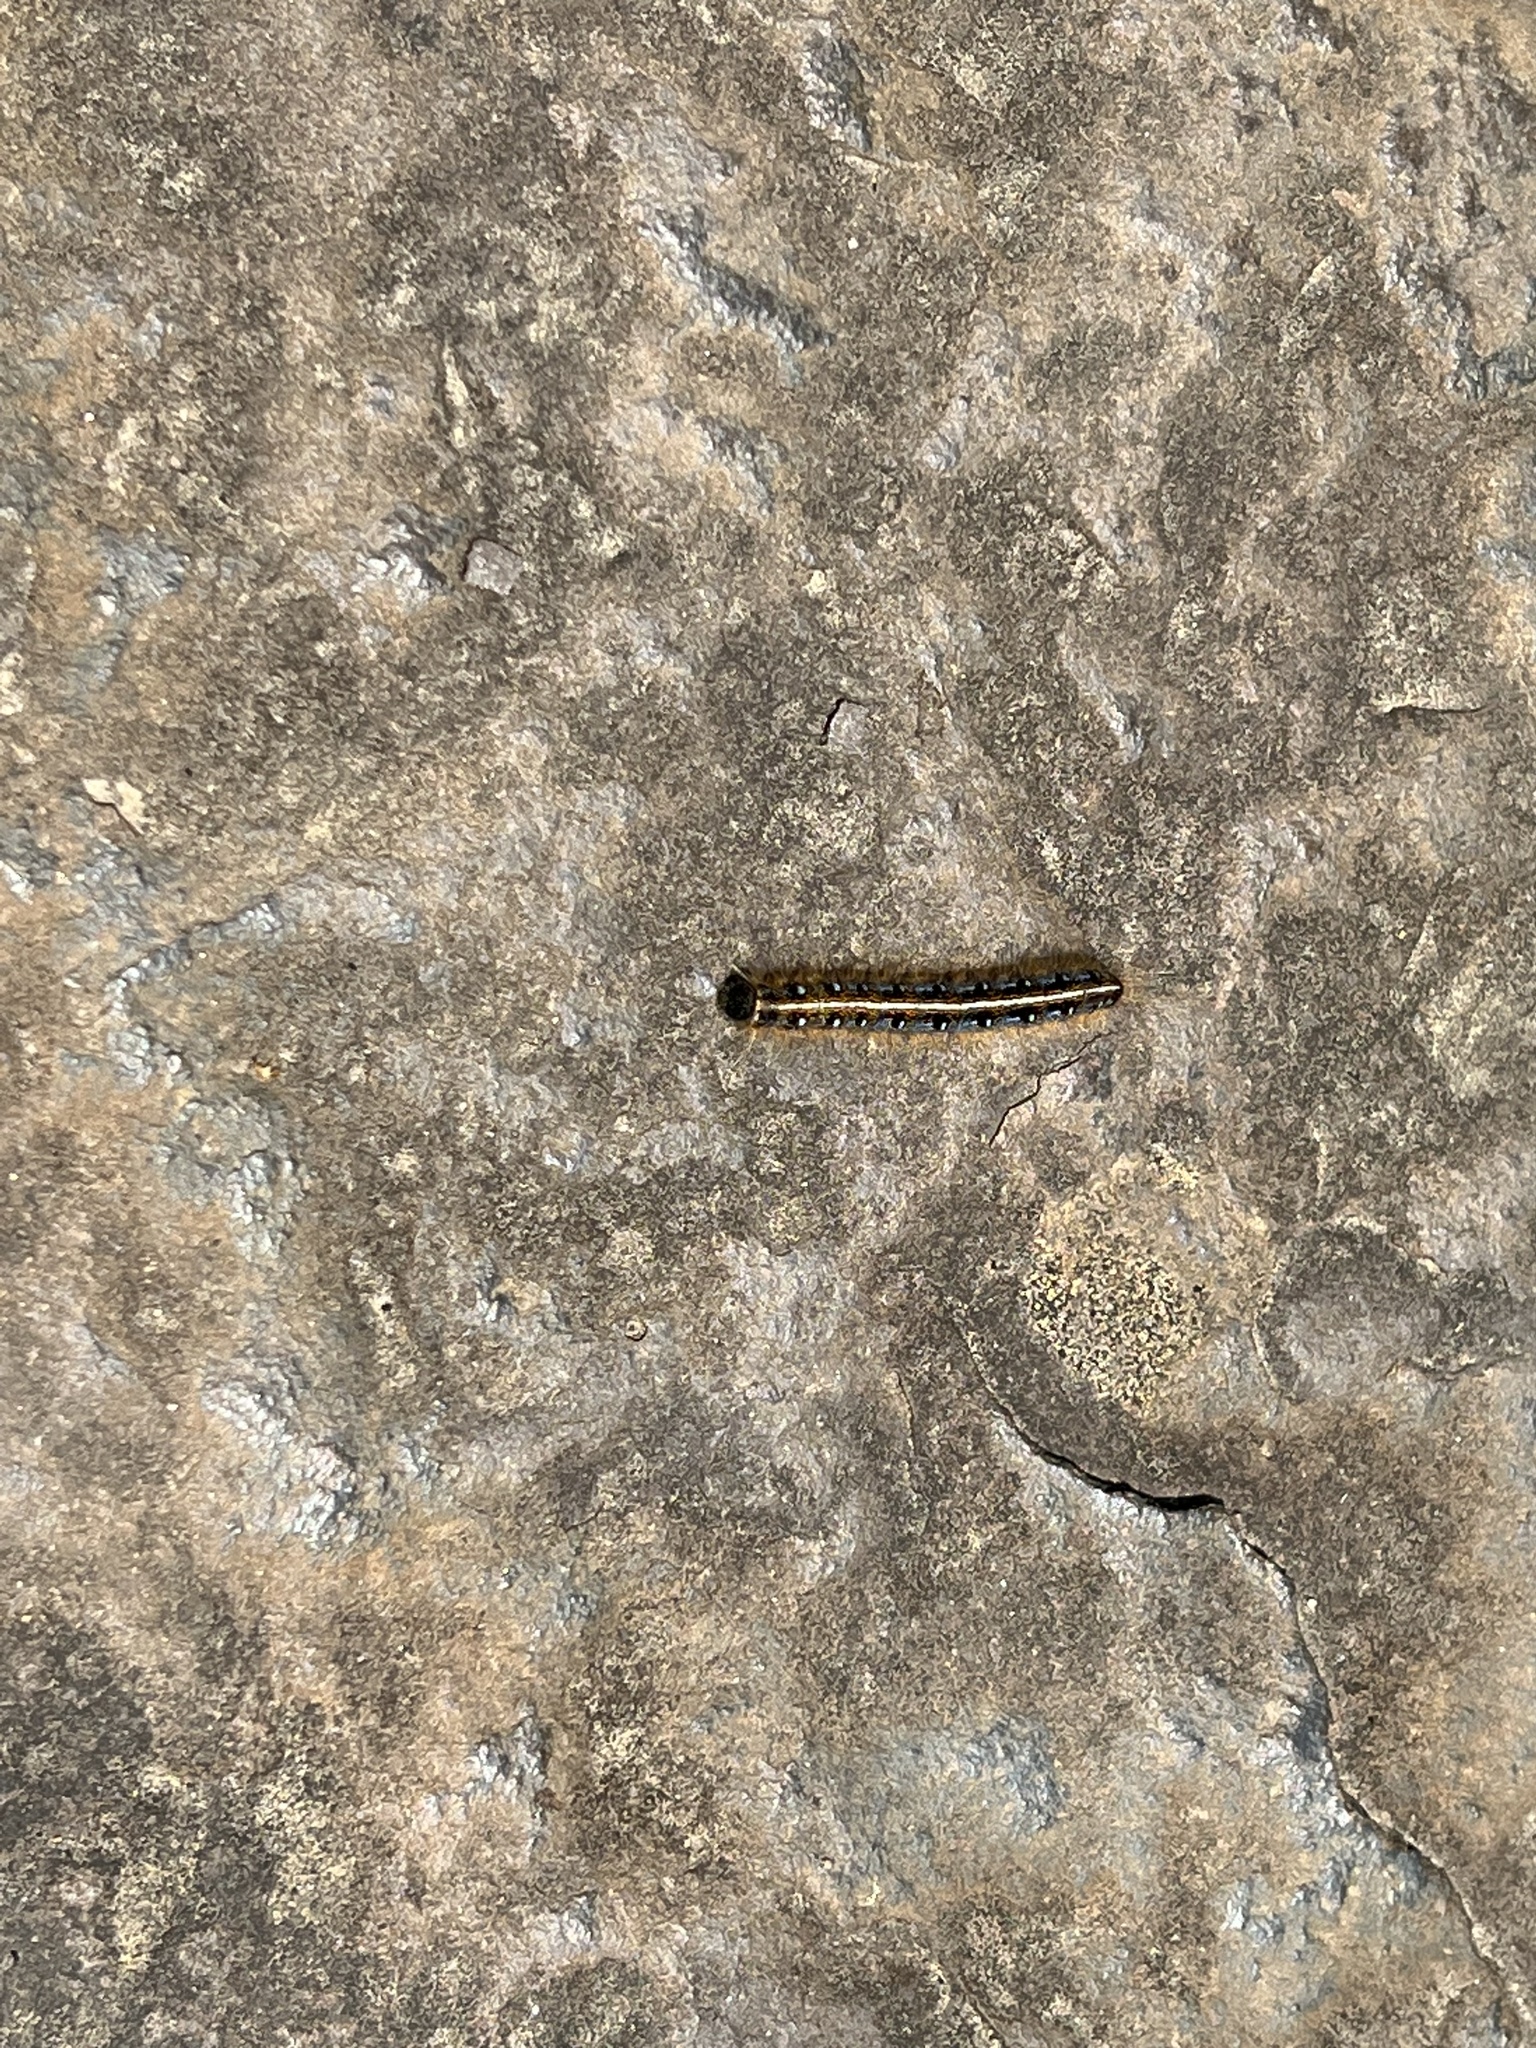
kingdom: Animalia
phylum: Arthropoda
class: Insecta
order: Lepidoptera
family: Lasiocampidae
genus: Malacosoma
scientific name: Malacosoma americana
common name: Eastern tent caterpillar moth
